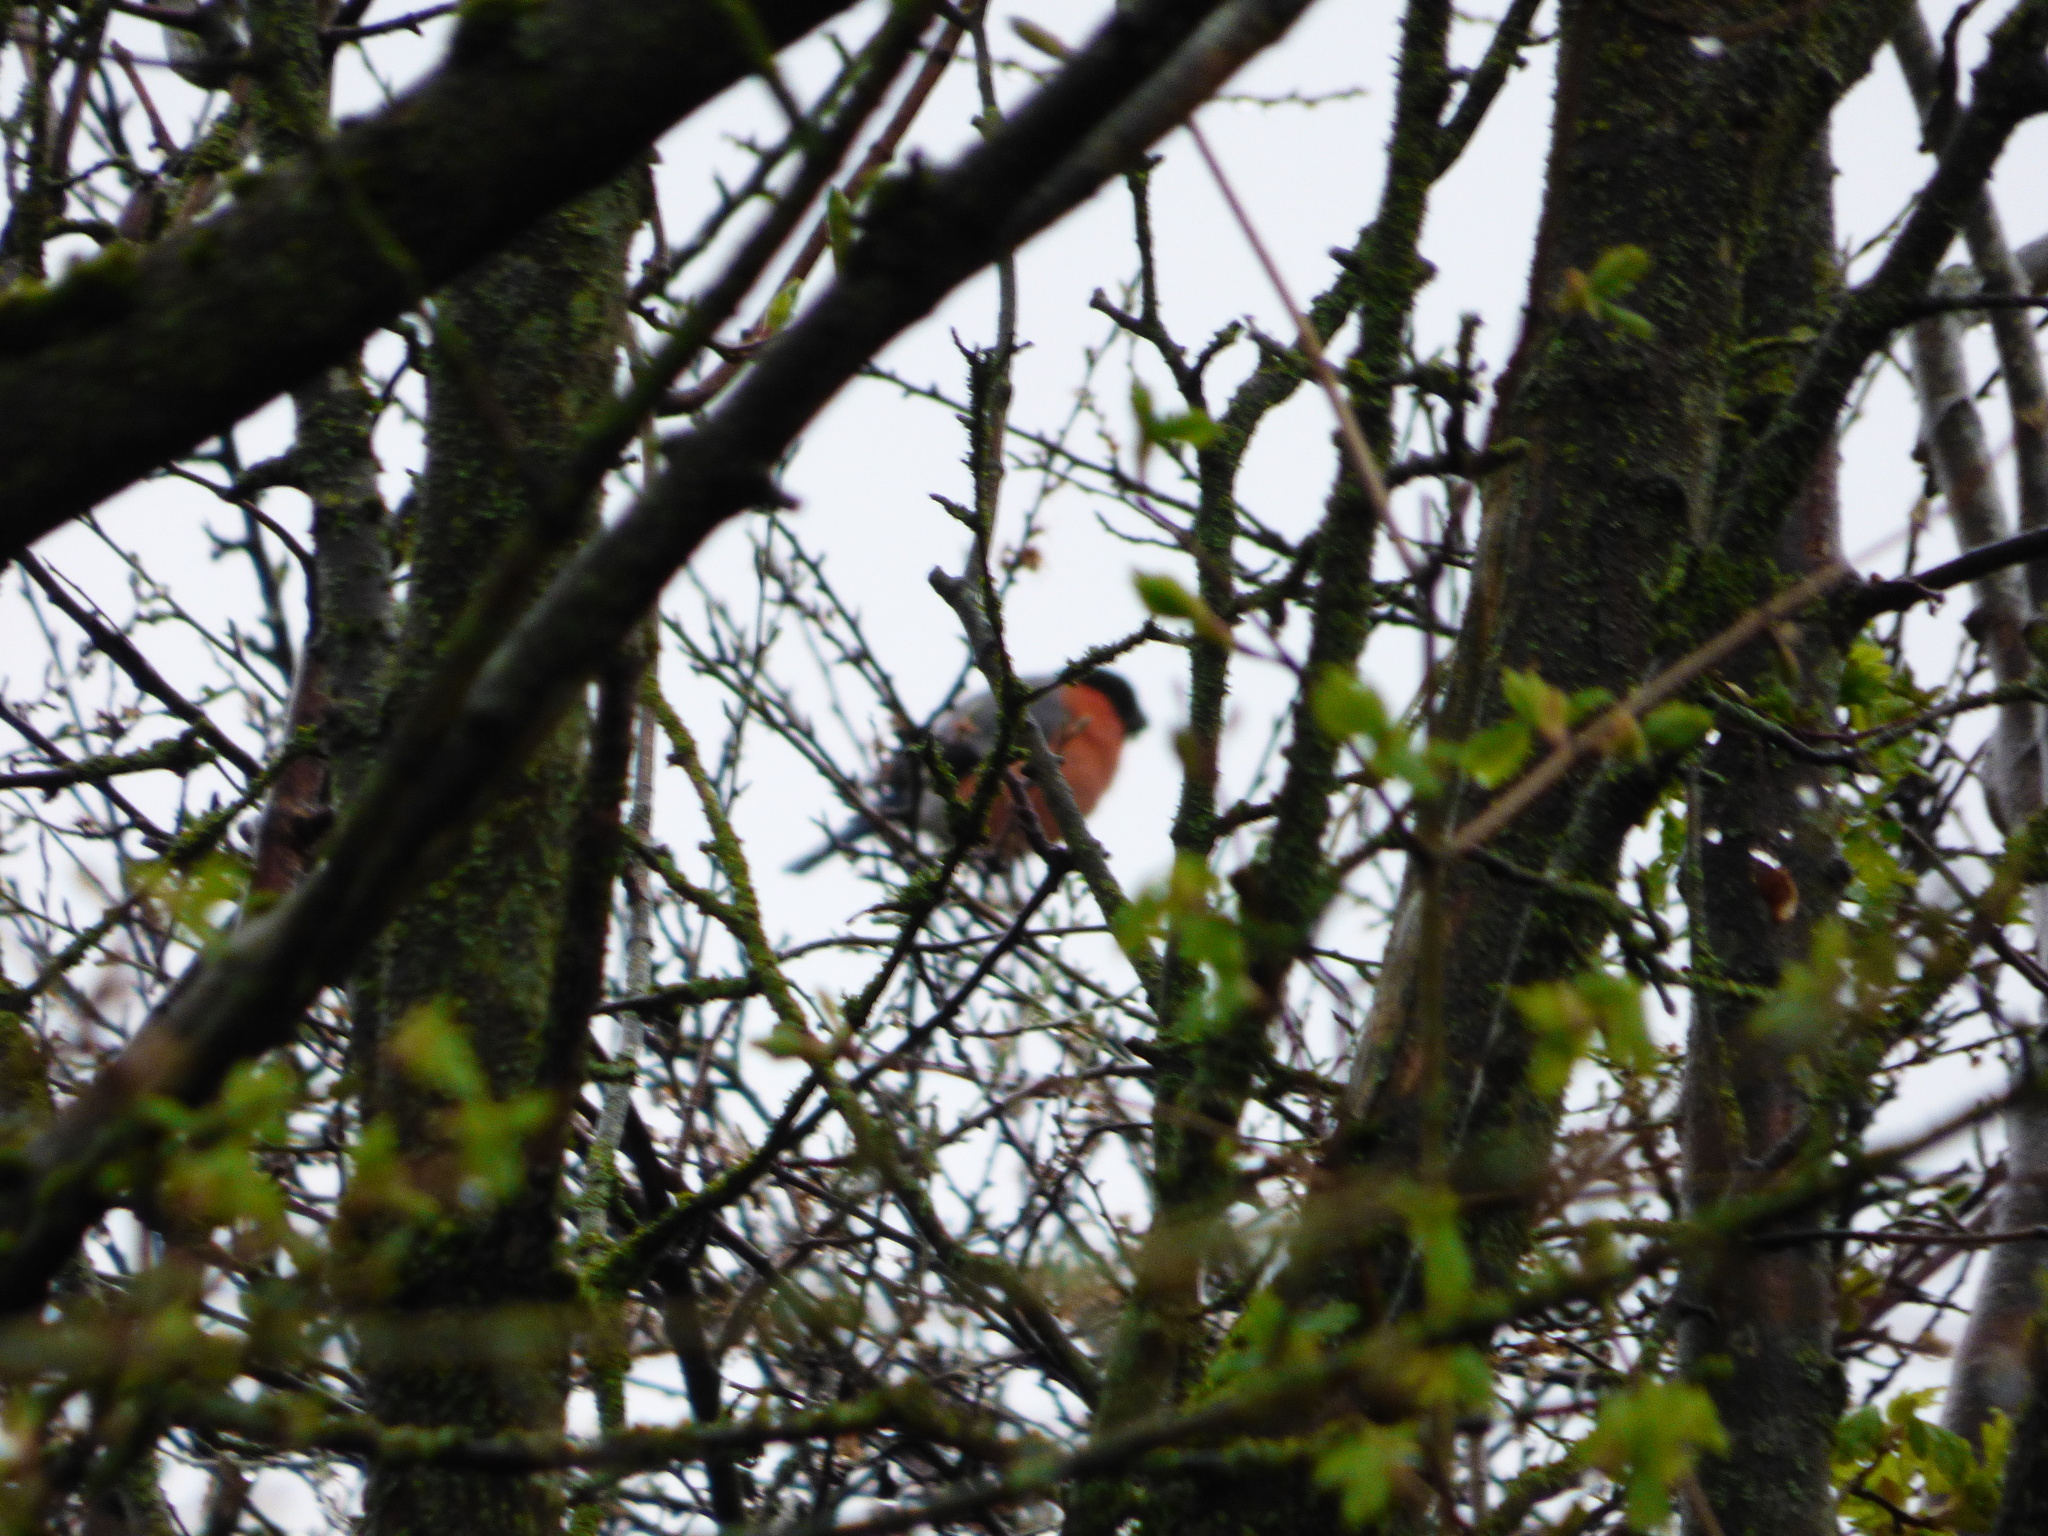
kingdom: Animalia
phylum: Chordata
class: Aves
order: Passeriformes
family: Fringillidae
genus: Pyrrhula
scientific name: Pyrrhula pyrrhula
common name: Eurasian bullfinch
